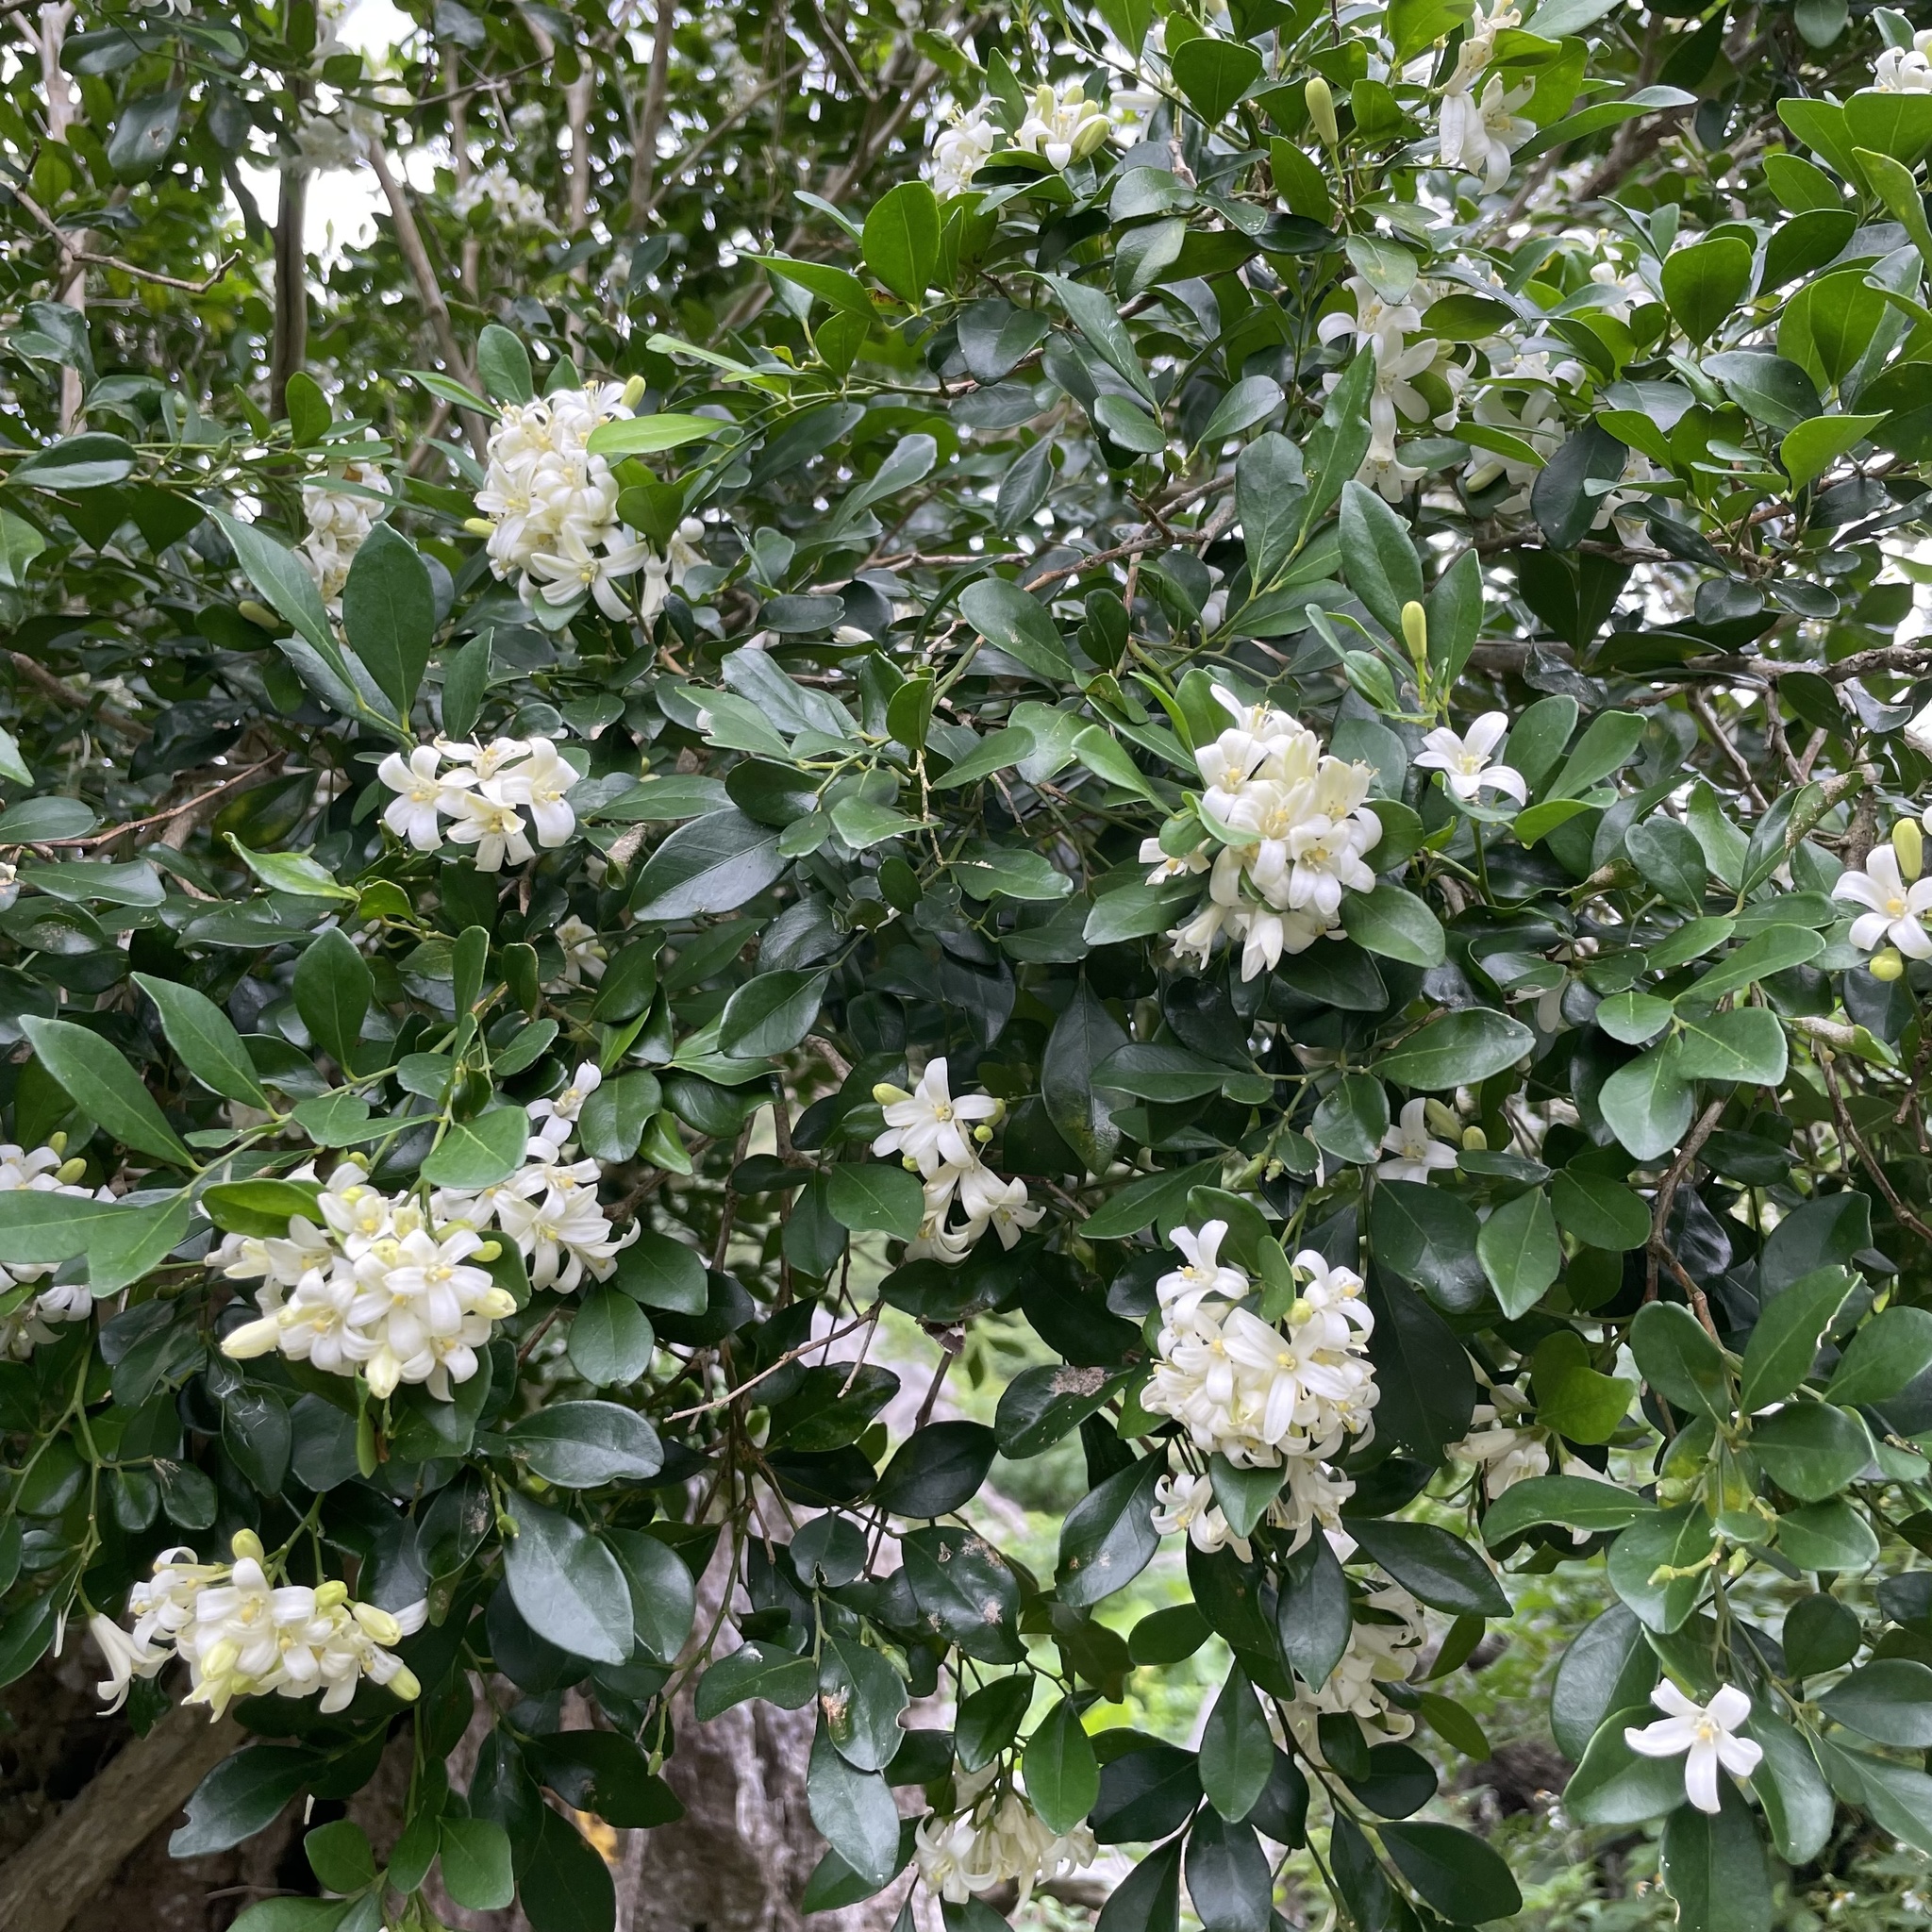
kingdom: Plantae
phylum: Tracheophyta
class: Magnoliopsida
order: Sapindales
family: Rutaceae
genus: Murraya
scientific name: Murraya paniculata
